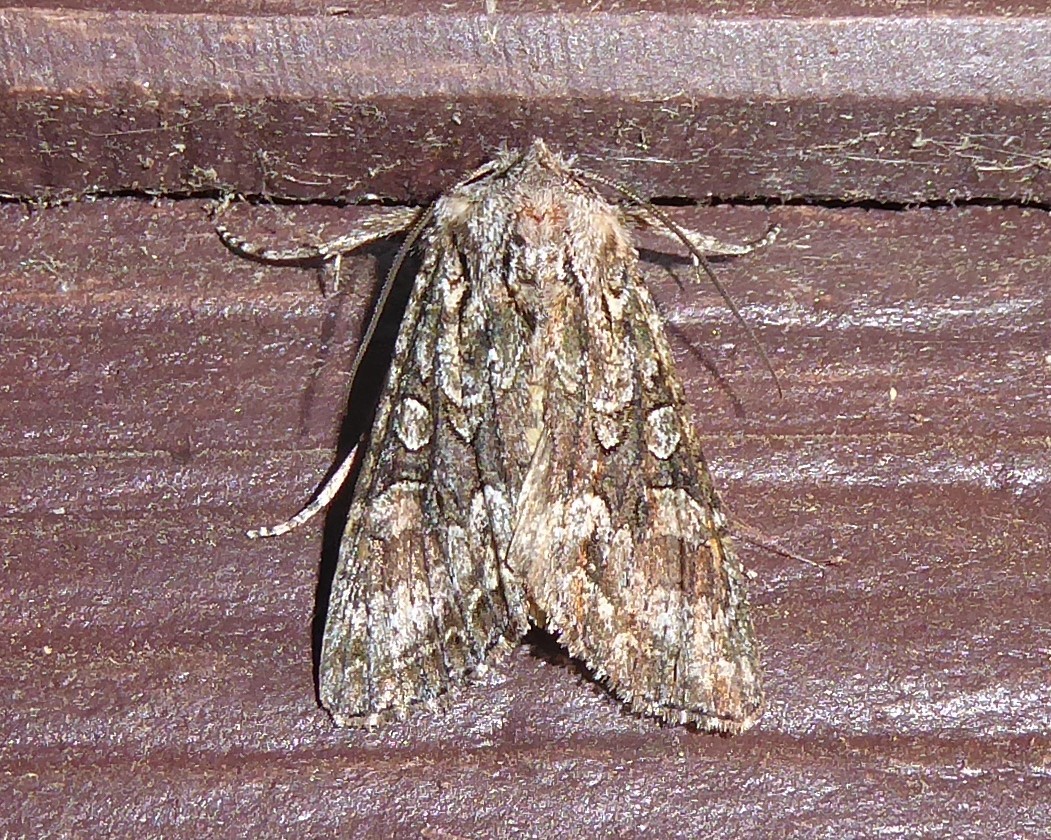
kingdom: Animalia
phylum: Arthropoda
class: Insecta
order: Lepidoptera
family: Noctuidae
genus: Ichneutica
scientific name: Ichneutica mutans
